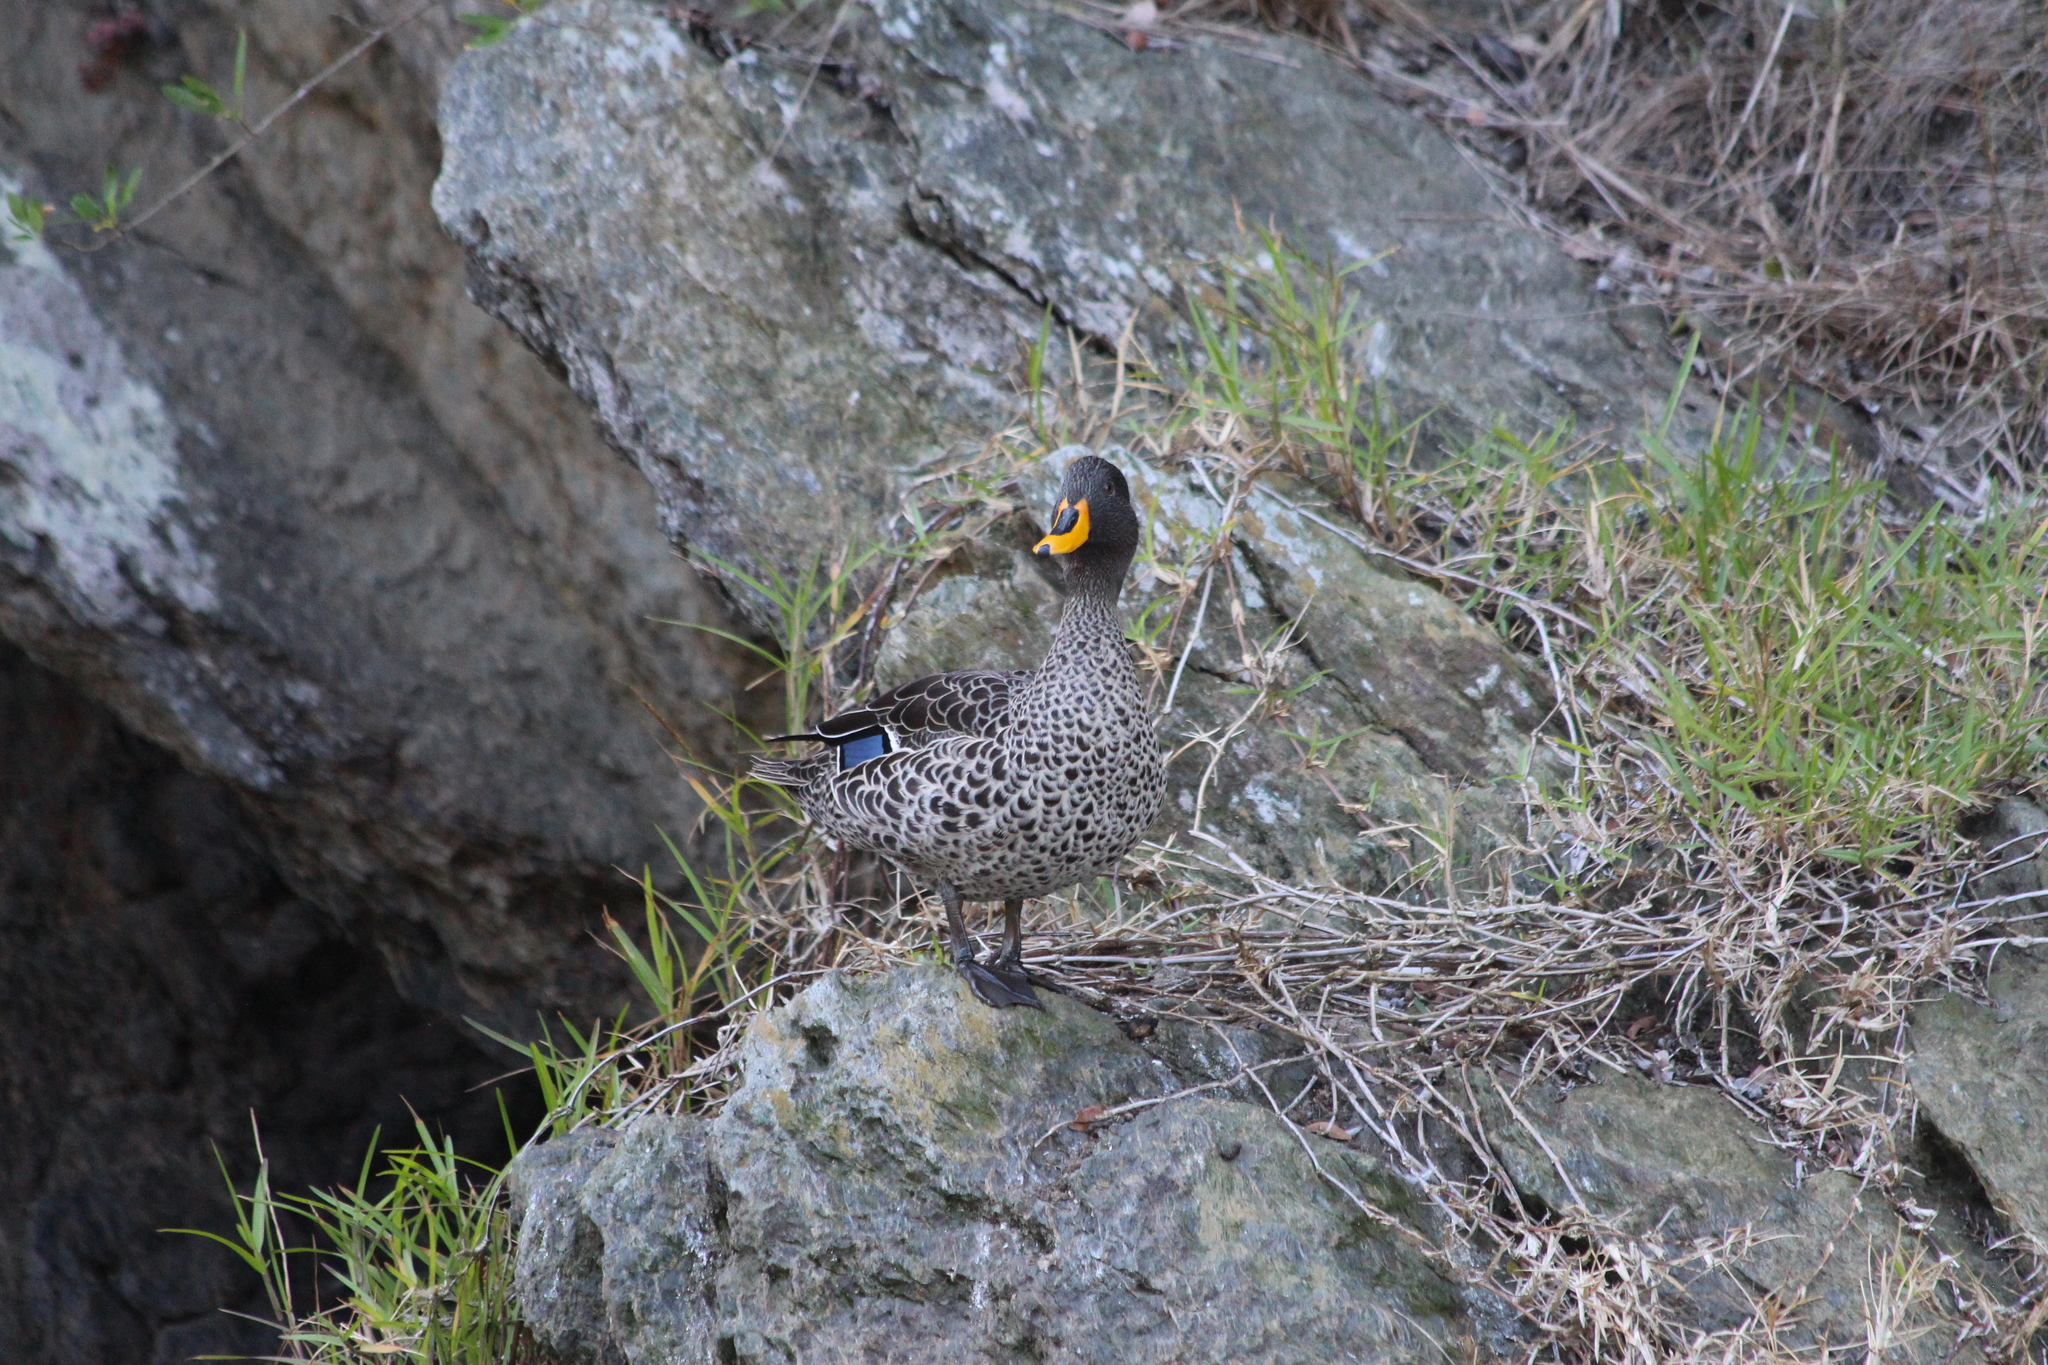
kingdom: Animalia
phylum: Chordata
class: Aves
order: Anseriformes
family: Anatidae
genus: Anas
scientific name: Anas undulata
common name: Yellow-billed duck
